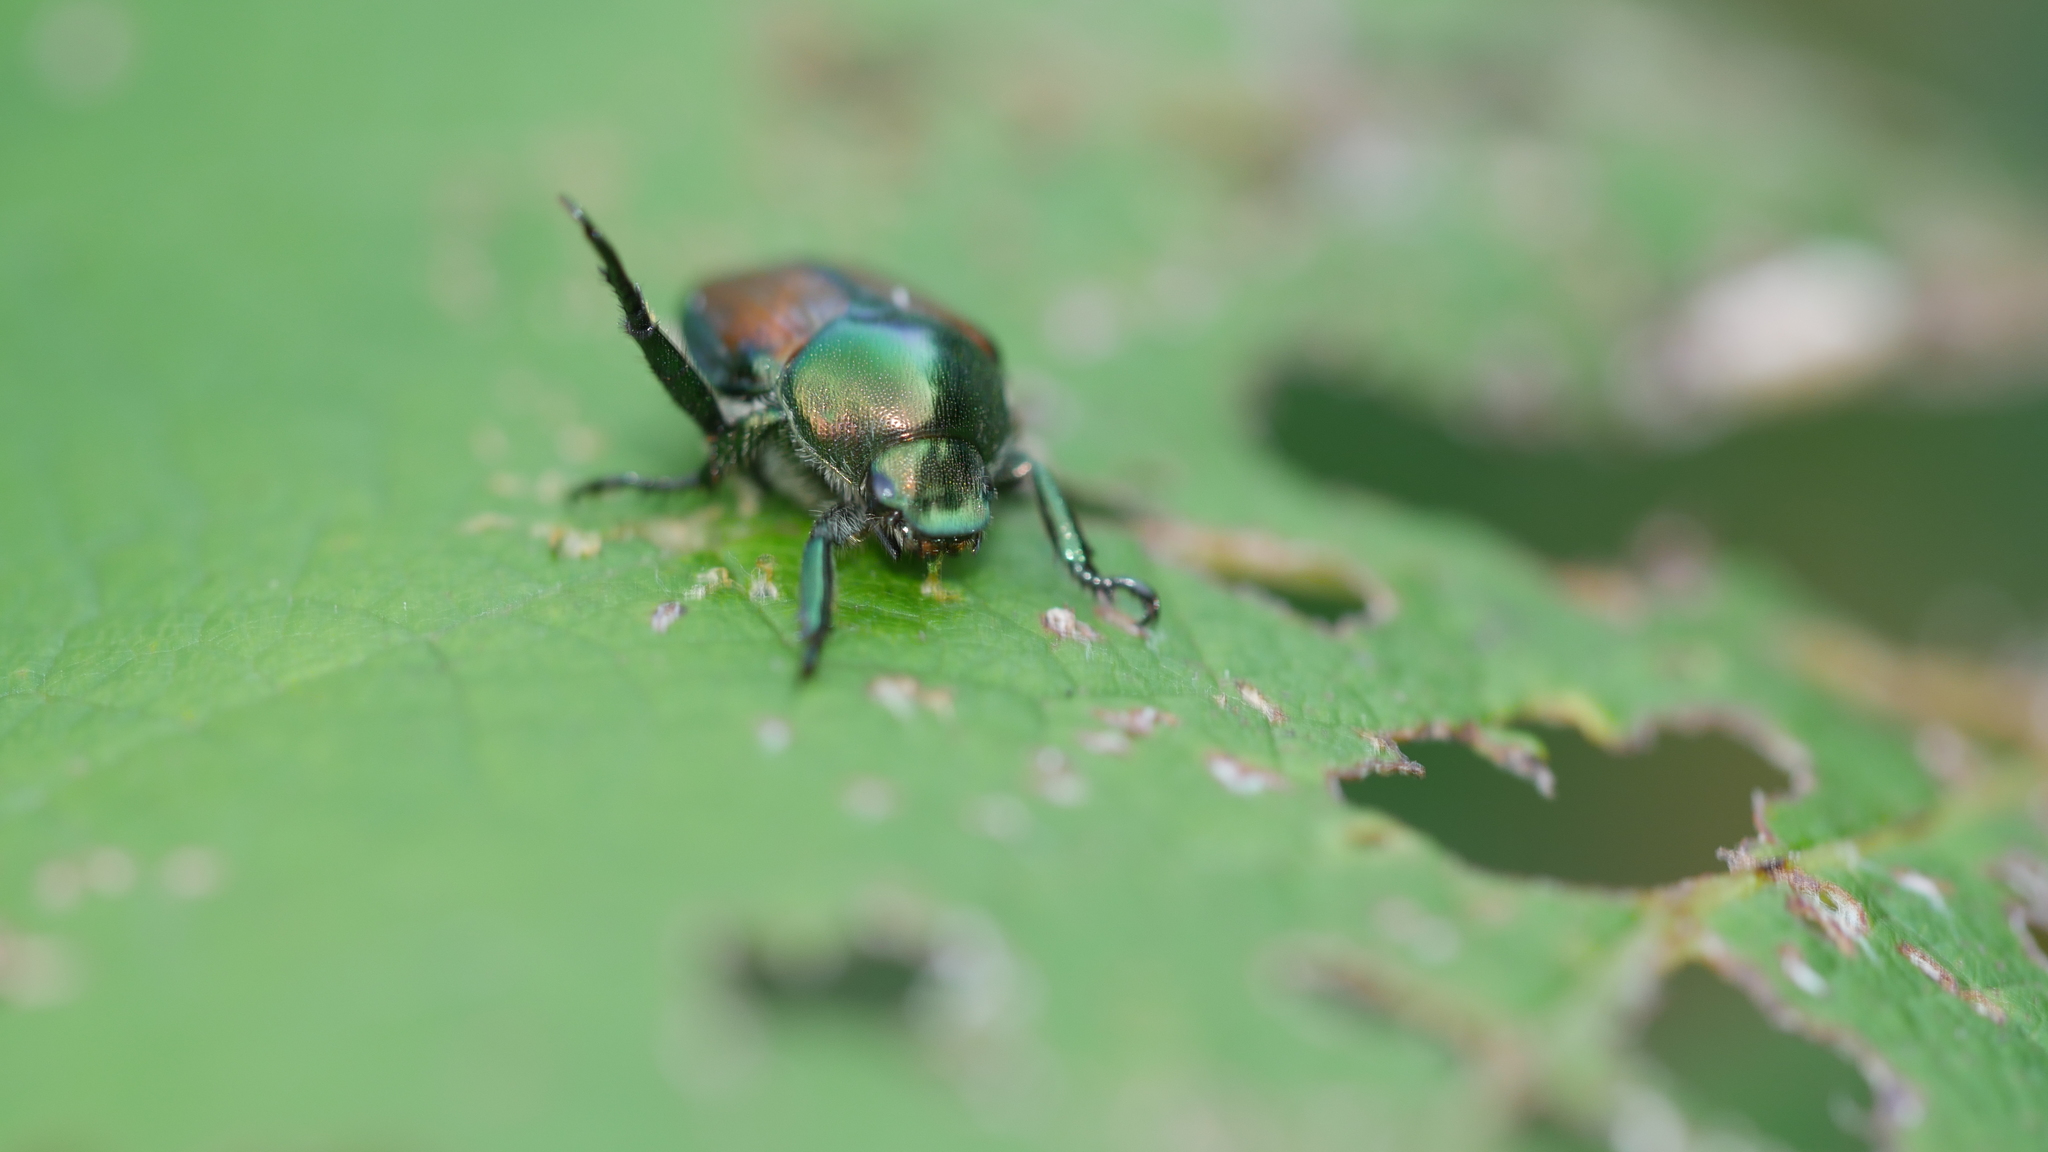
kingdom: Animalia
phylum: Arthropoda
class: Insecta
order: Coleoptera
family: Scarabaeidae
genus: Popillia
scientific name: Popillia japonica
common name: Japanese beetle
